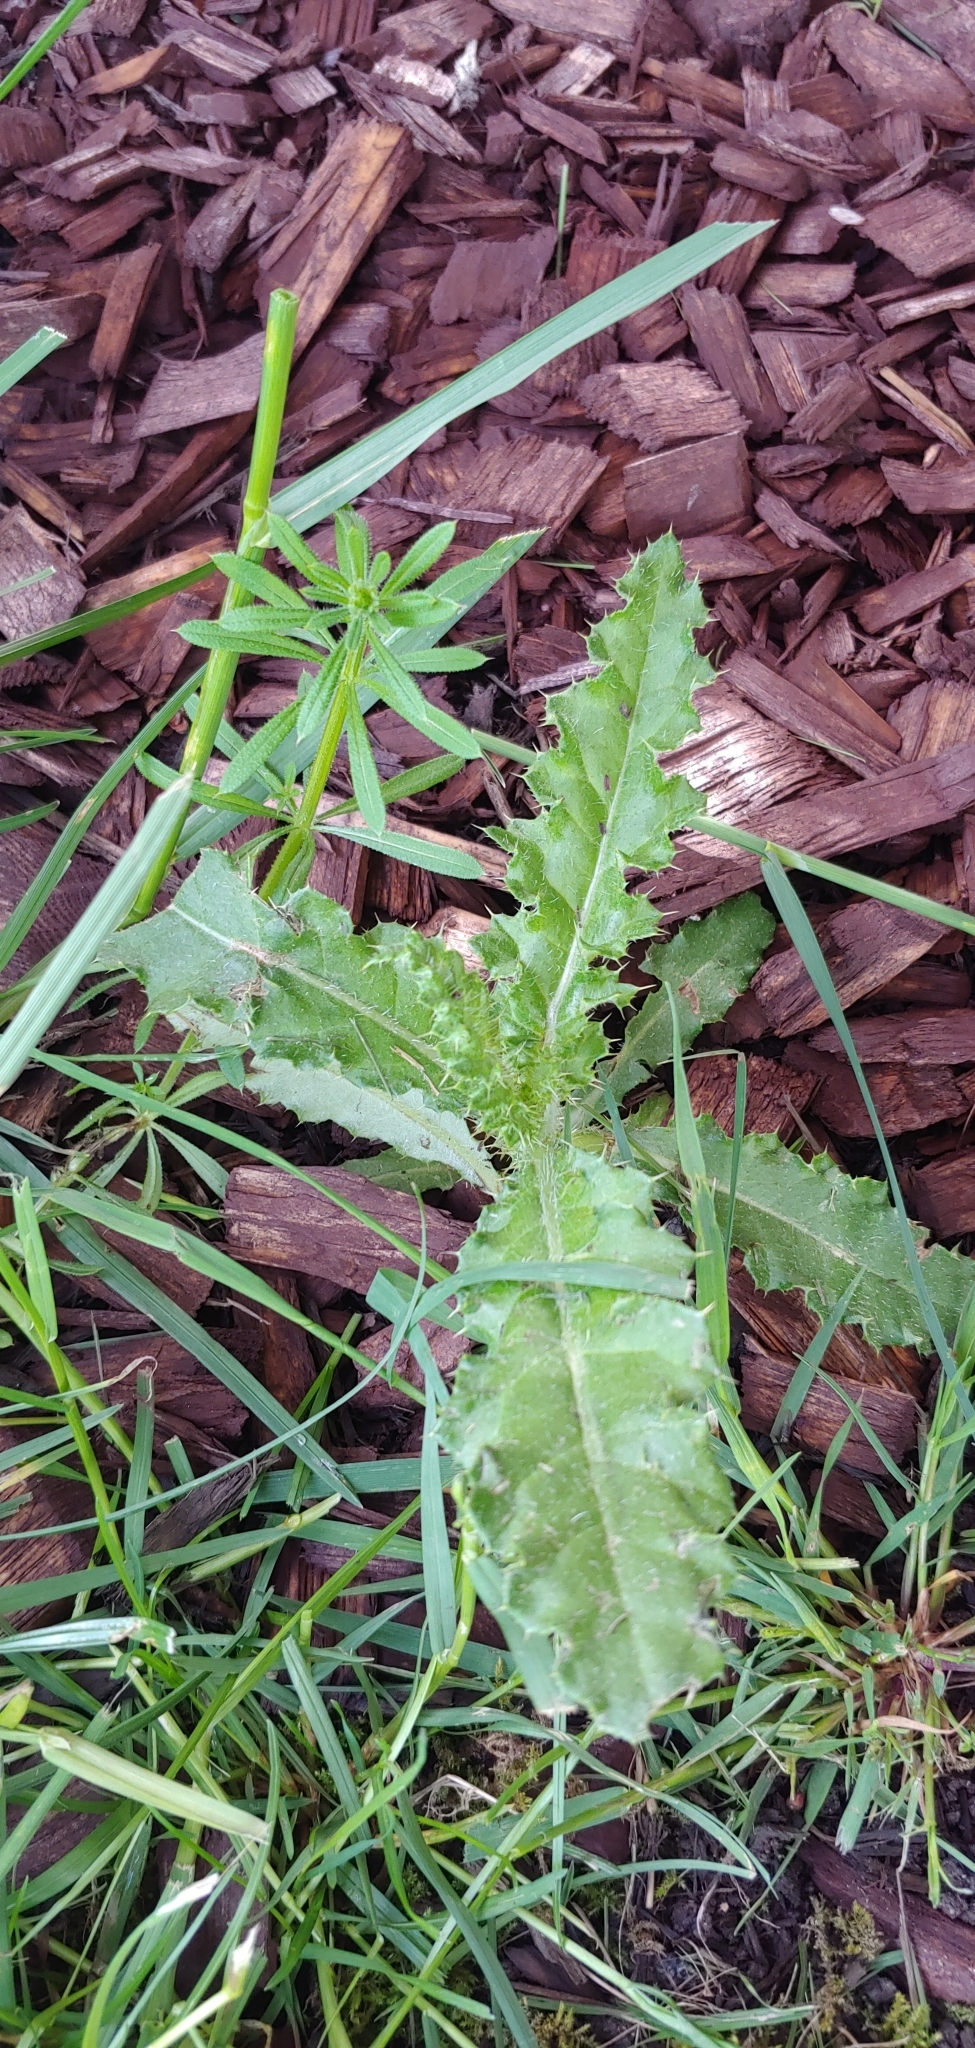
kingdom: Plantae
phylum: Tracheophyta
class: Magnoliopsida
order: Asterales
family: Asteraceae
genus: Cirsium
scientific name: Cirsium arvense
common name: Creeping thistle
